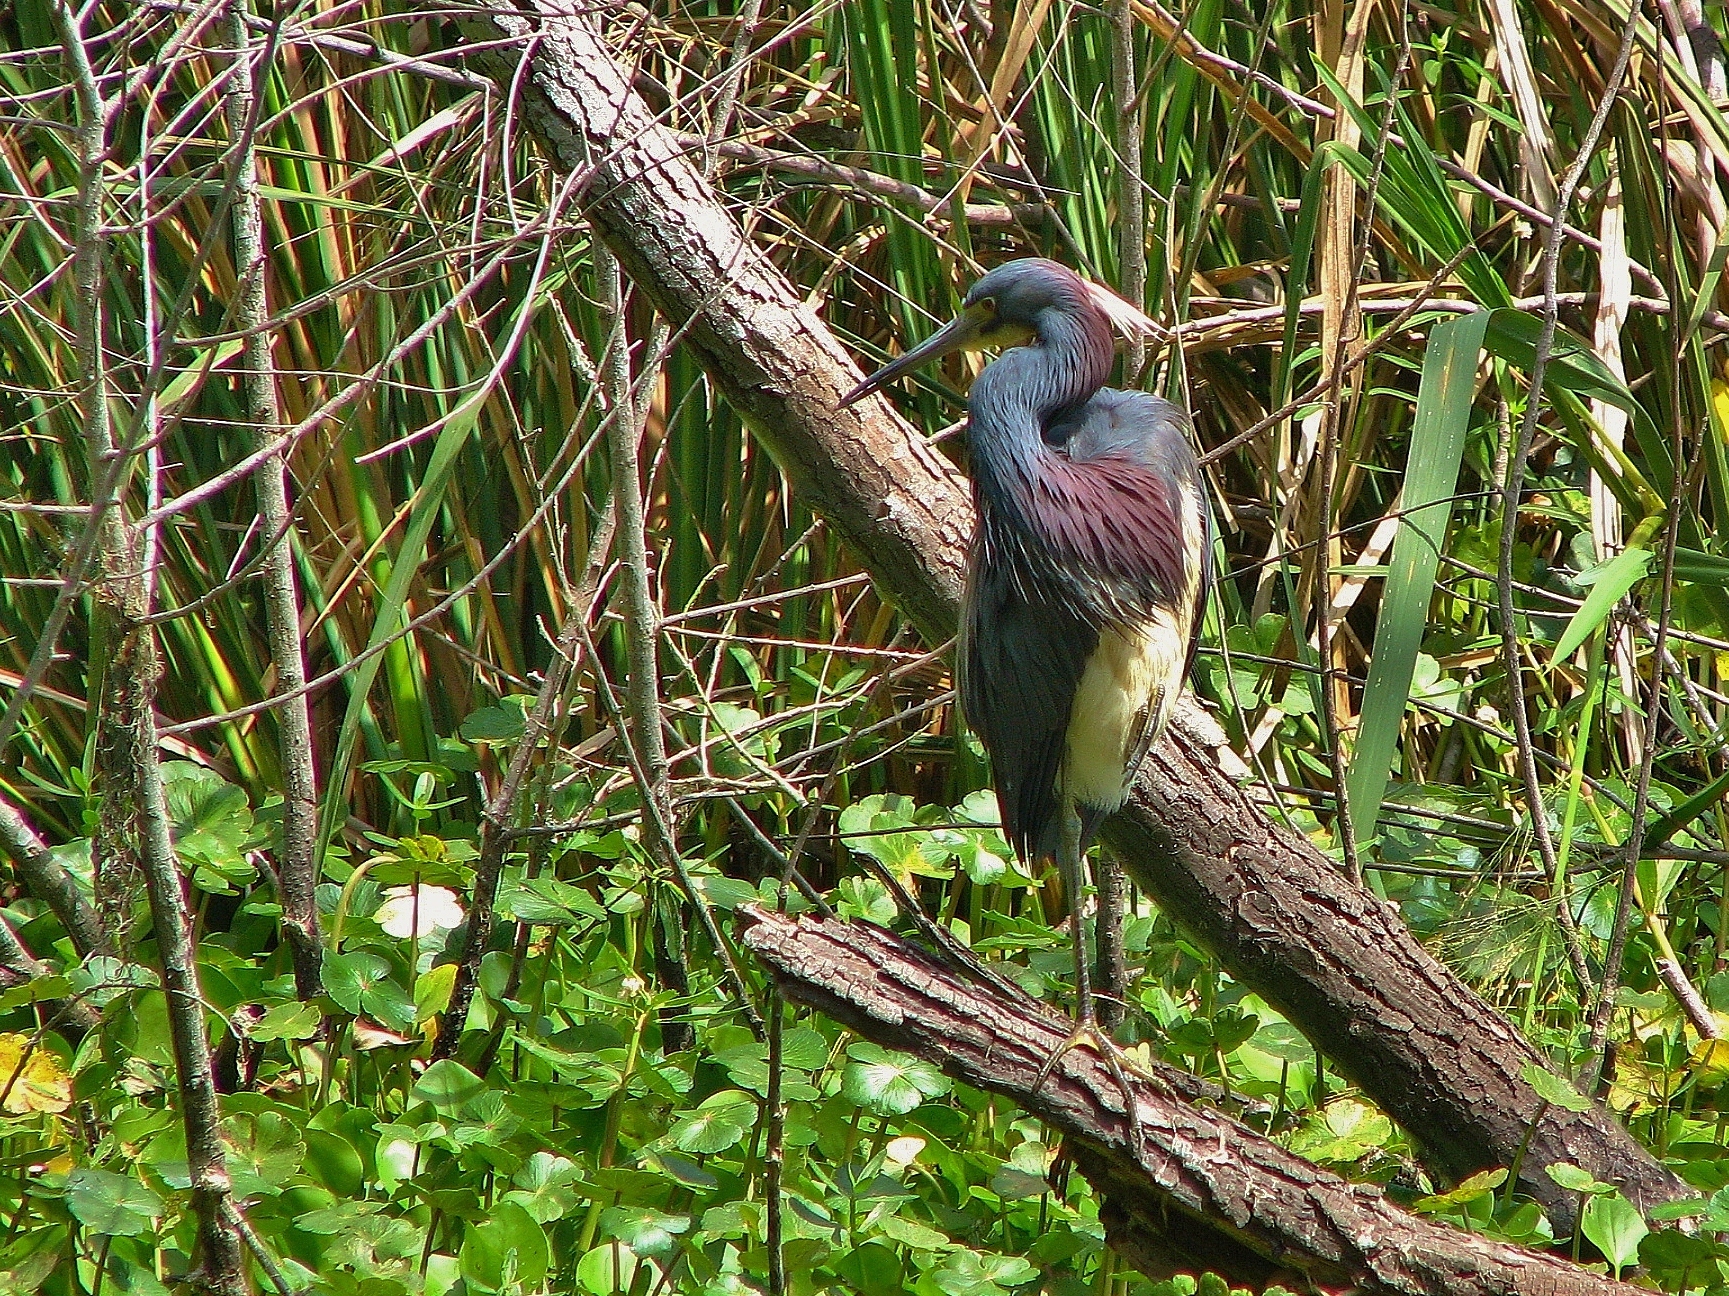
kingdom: Animalia
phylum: Chordata
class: Aves
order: Pelecaniformes
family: Ardeidae
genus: Egretta
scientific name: Egretta tricolor
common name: Tricolored heron
